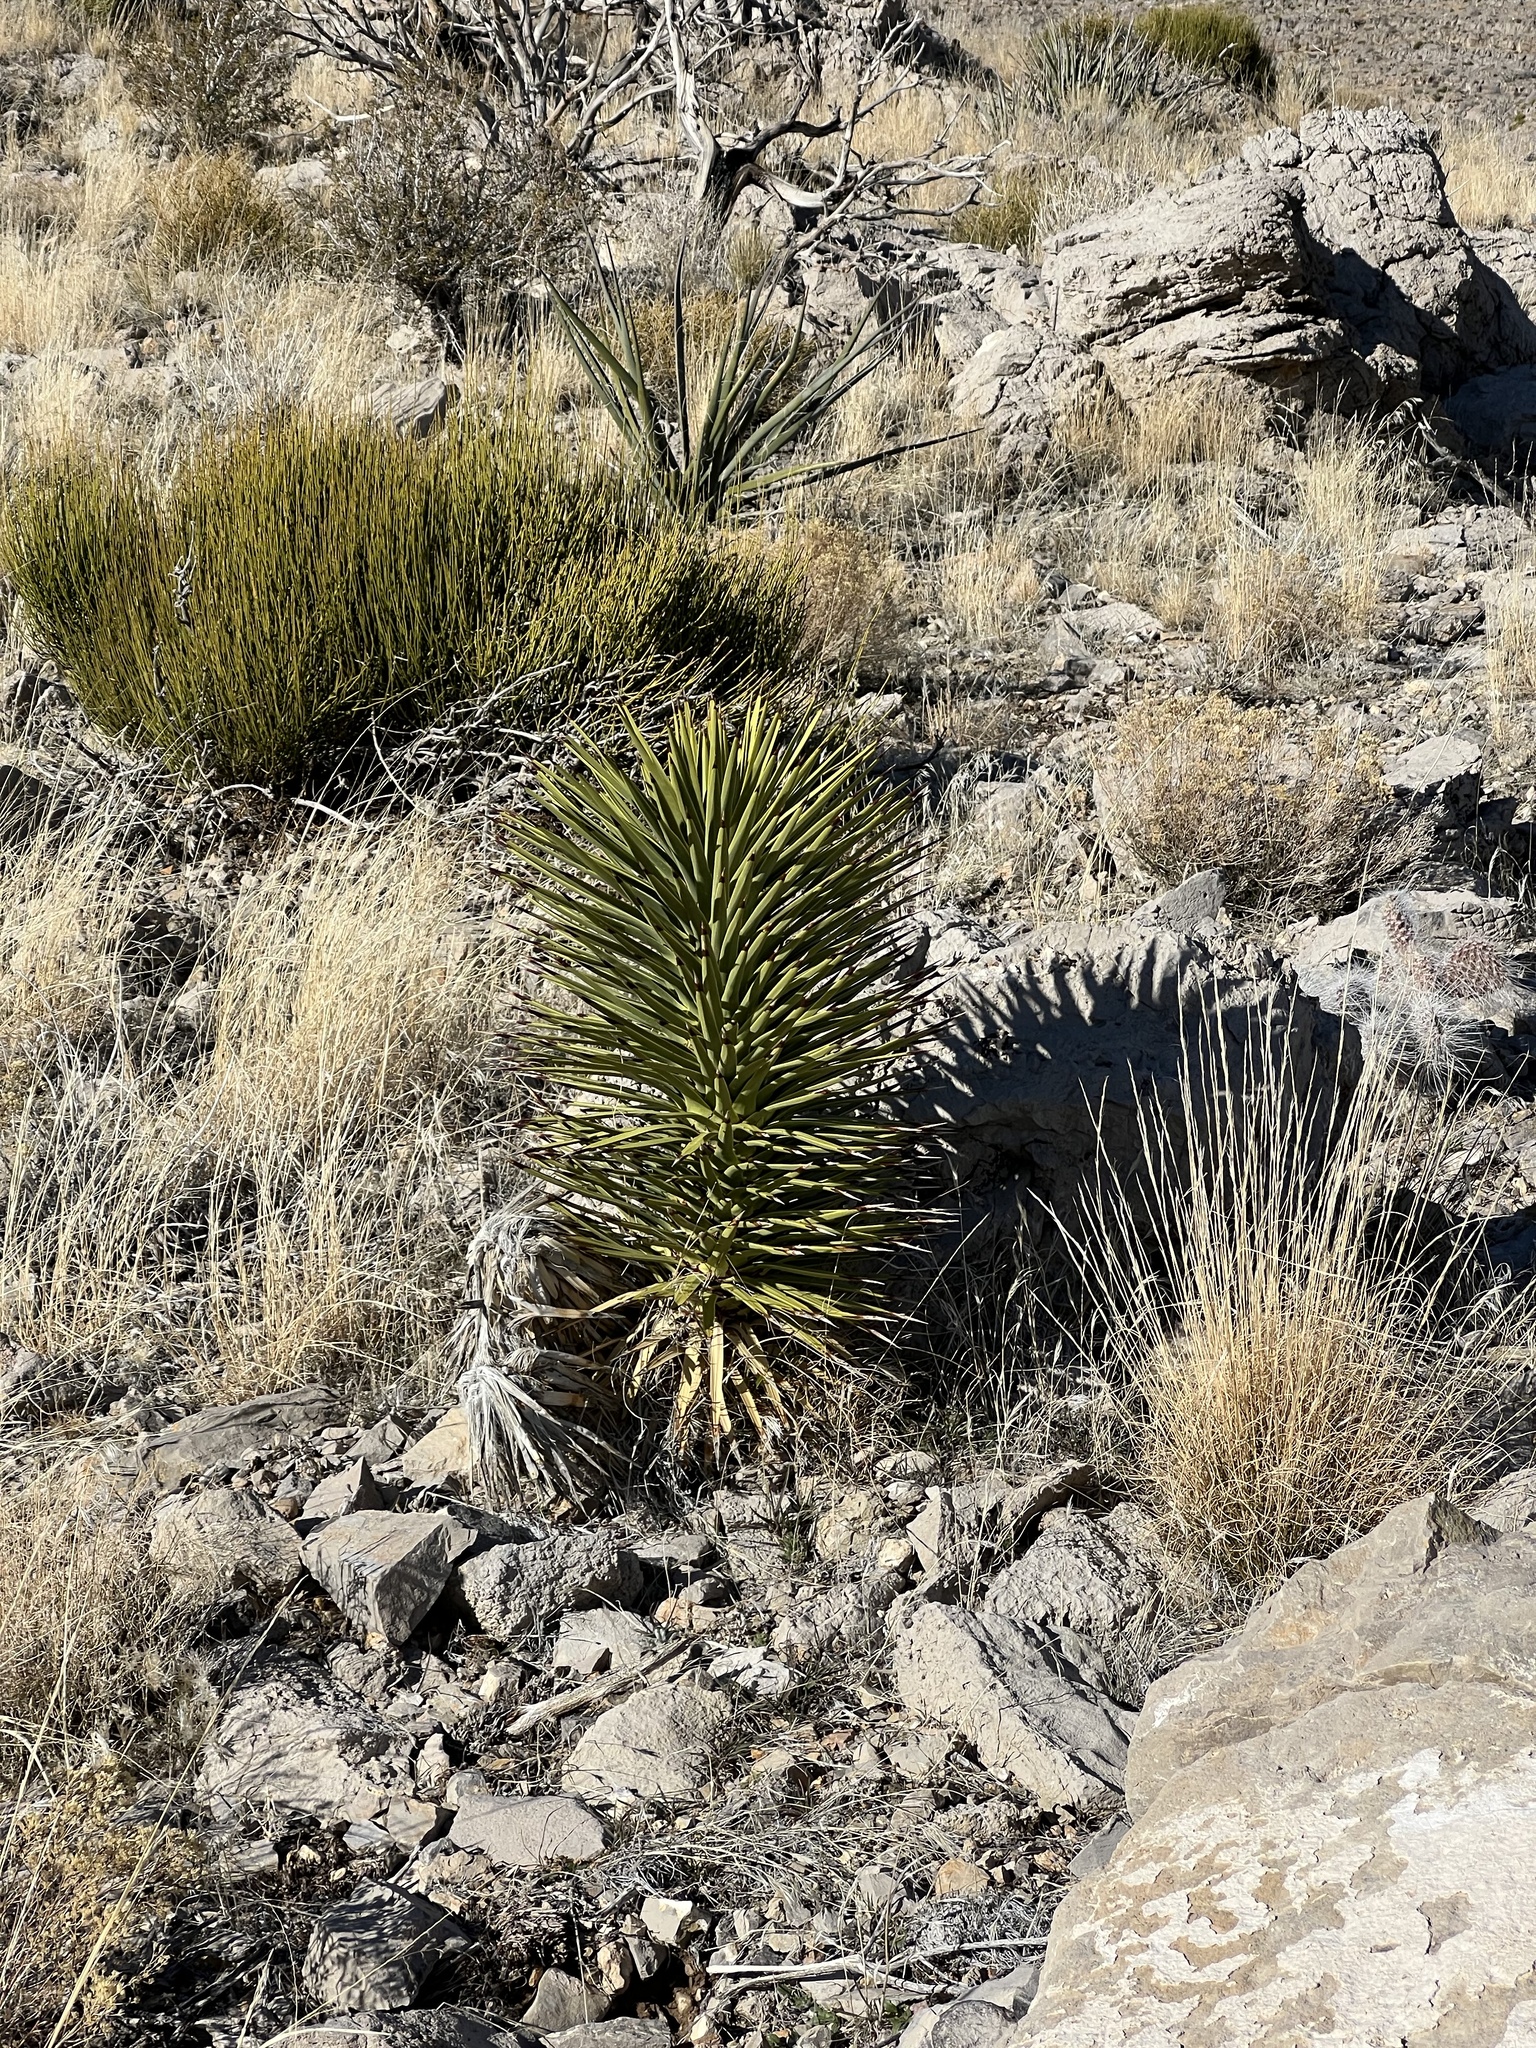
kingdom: Plantae
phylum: Tracheophyta
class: Liliopsida
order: Asparagales
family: Asparagaceae
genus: Yucca
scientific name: Yucca brevifolia
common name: Joshua tree
